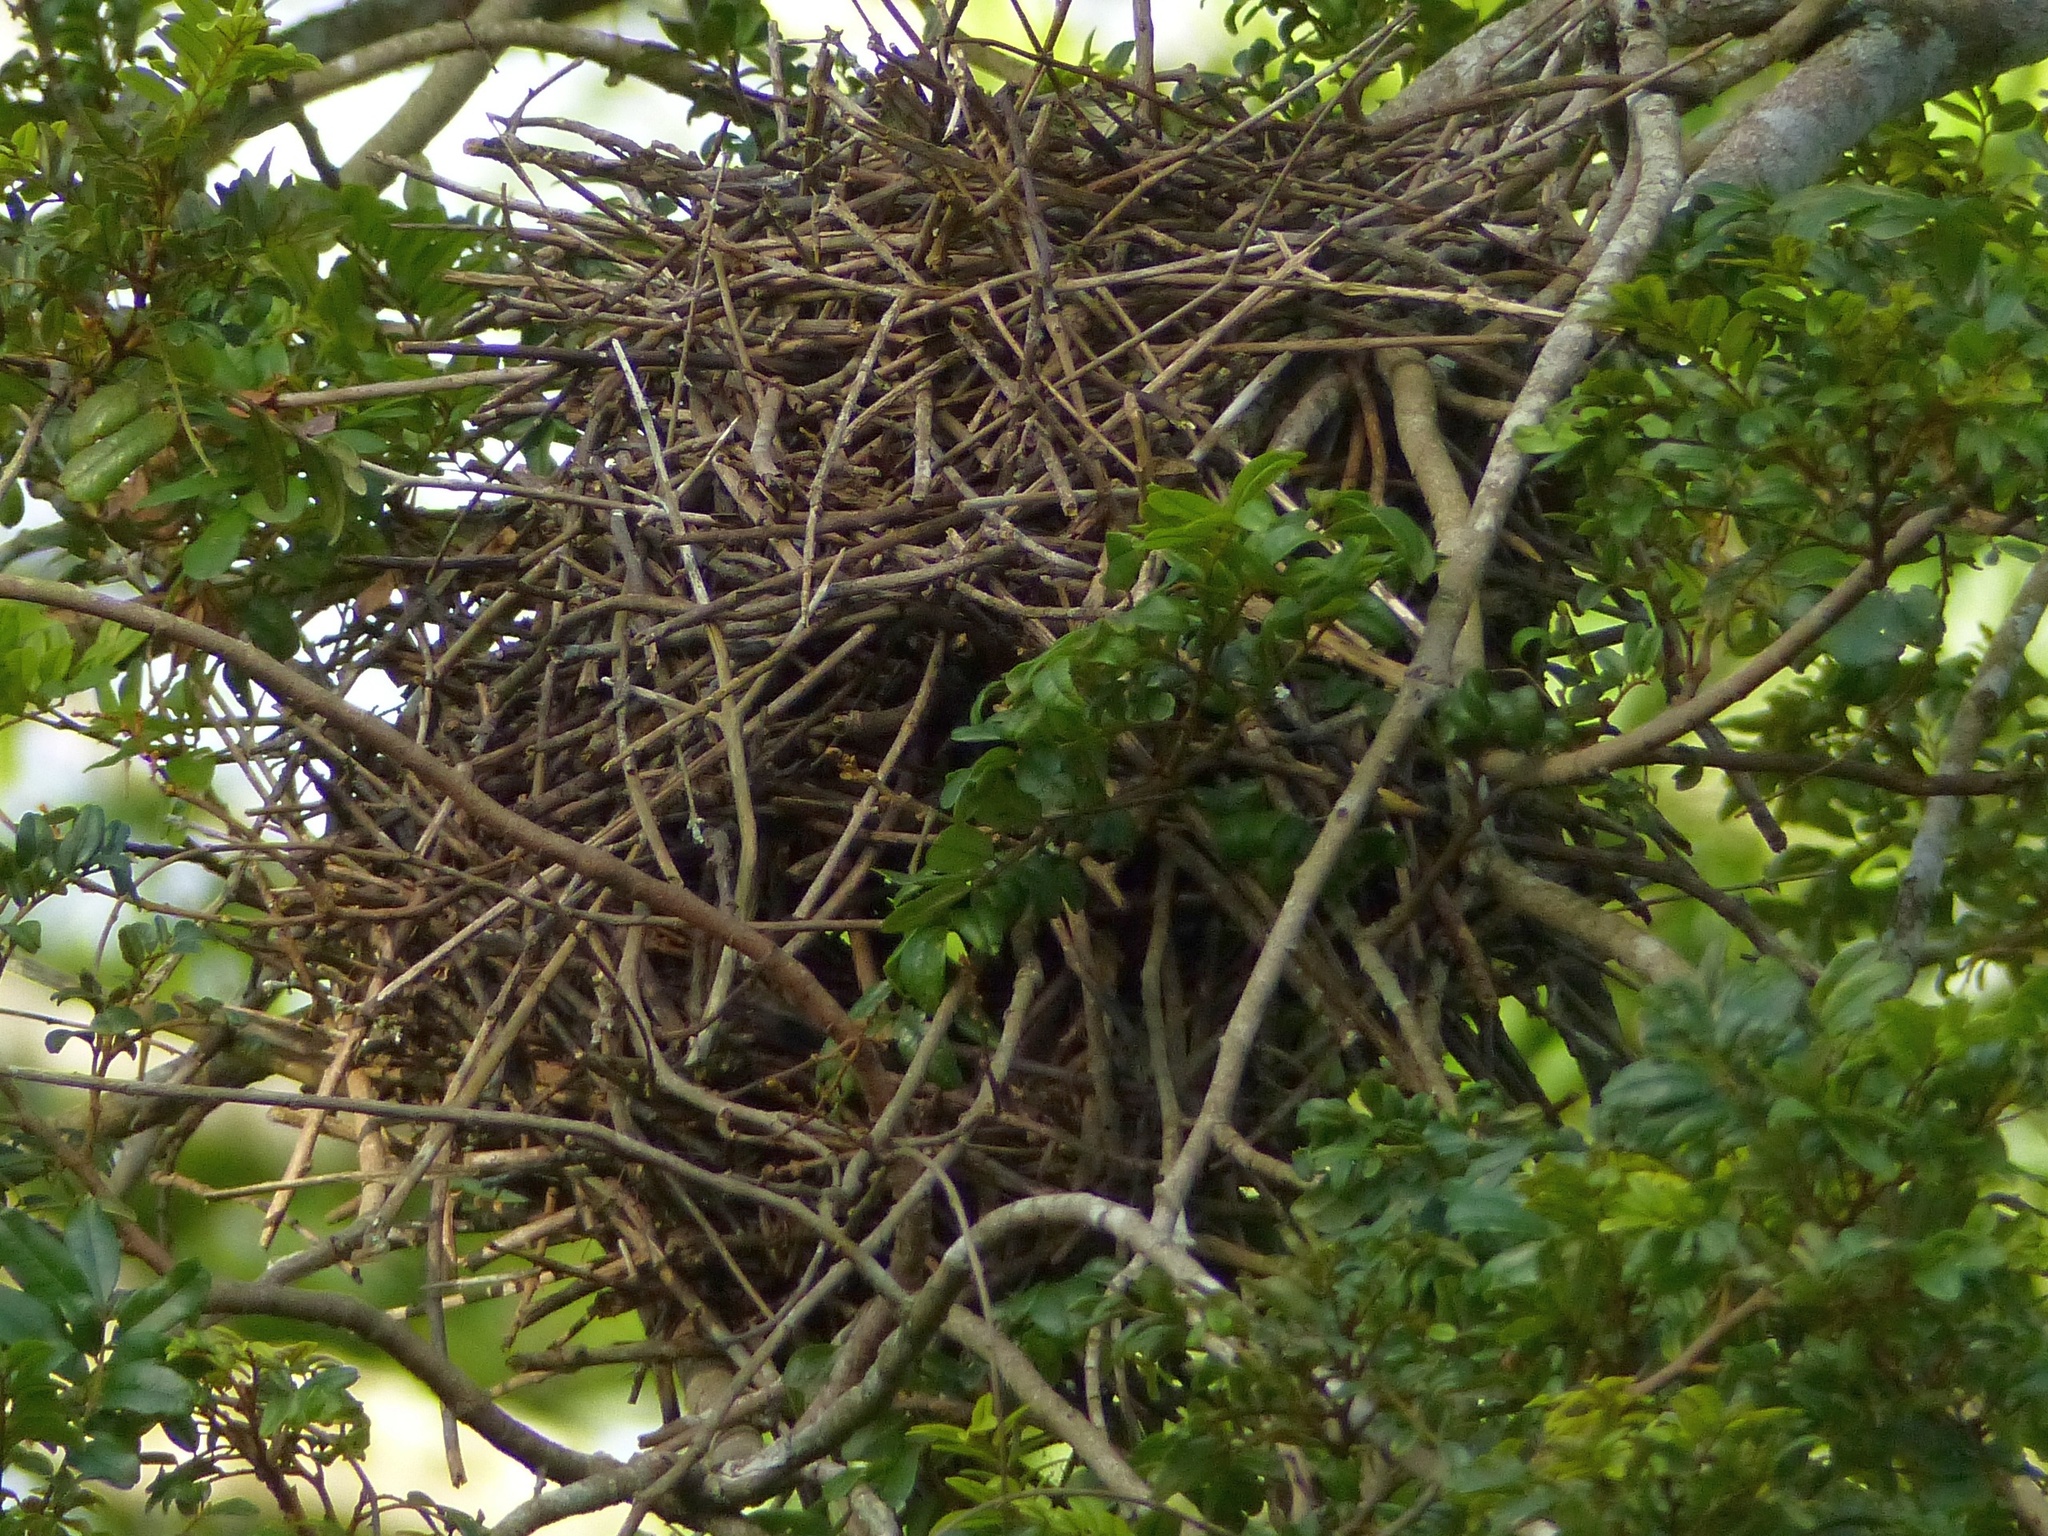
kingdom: Animalia
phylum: Chordata
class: Aves
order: Passeriformes
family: Furnariidae
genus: Phacellodomus
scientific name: Phacellodomus rufifrons
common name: Rufous-fronted thornbird
